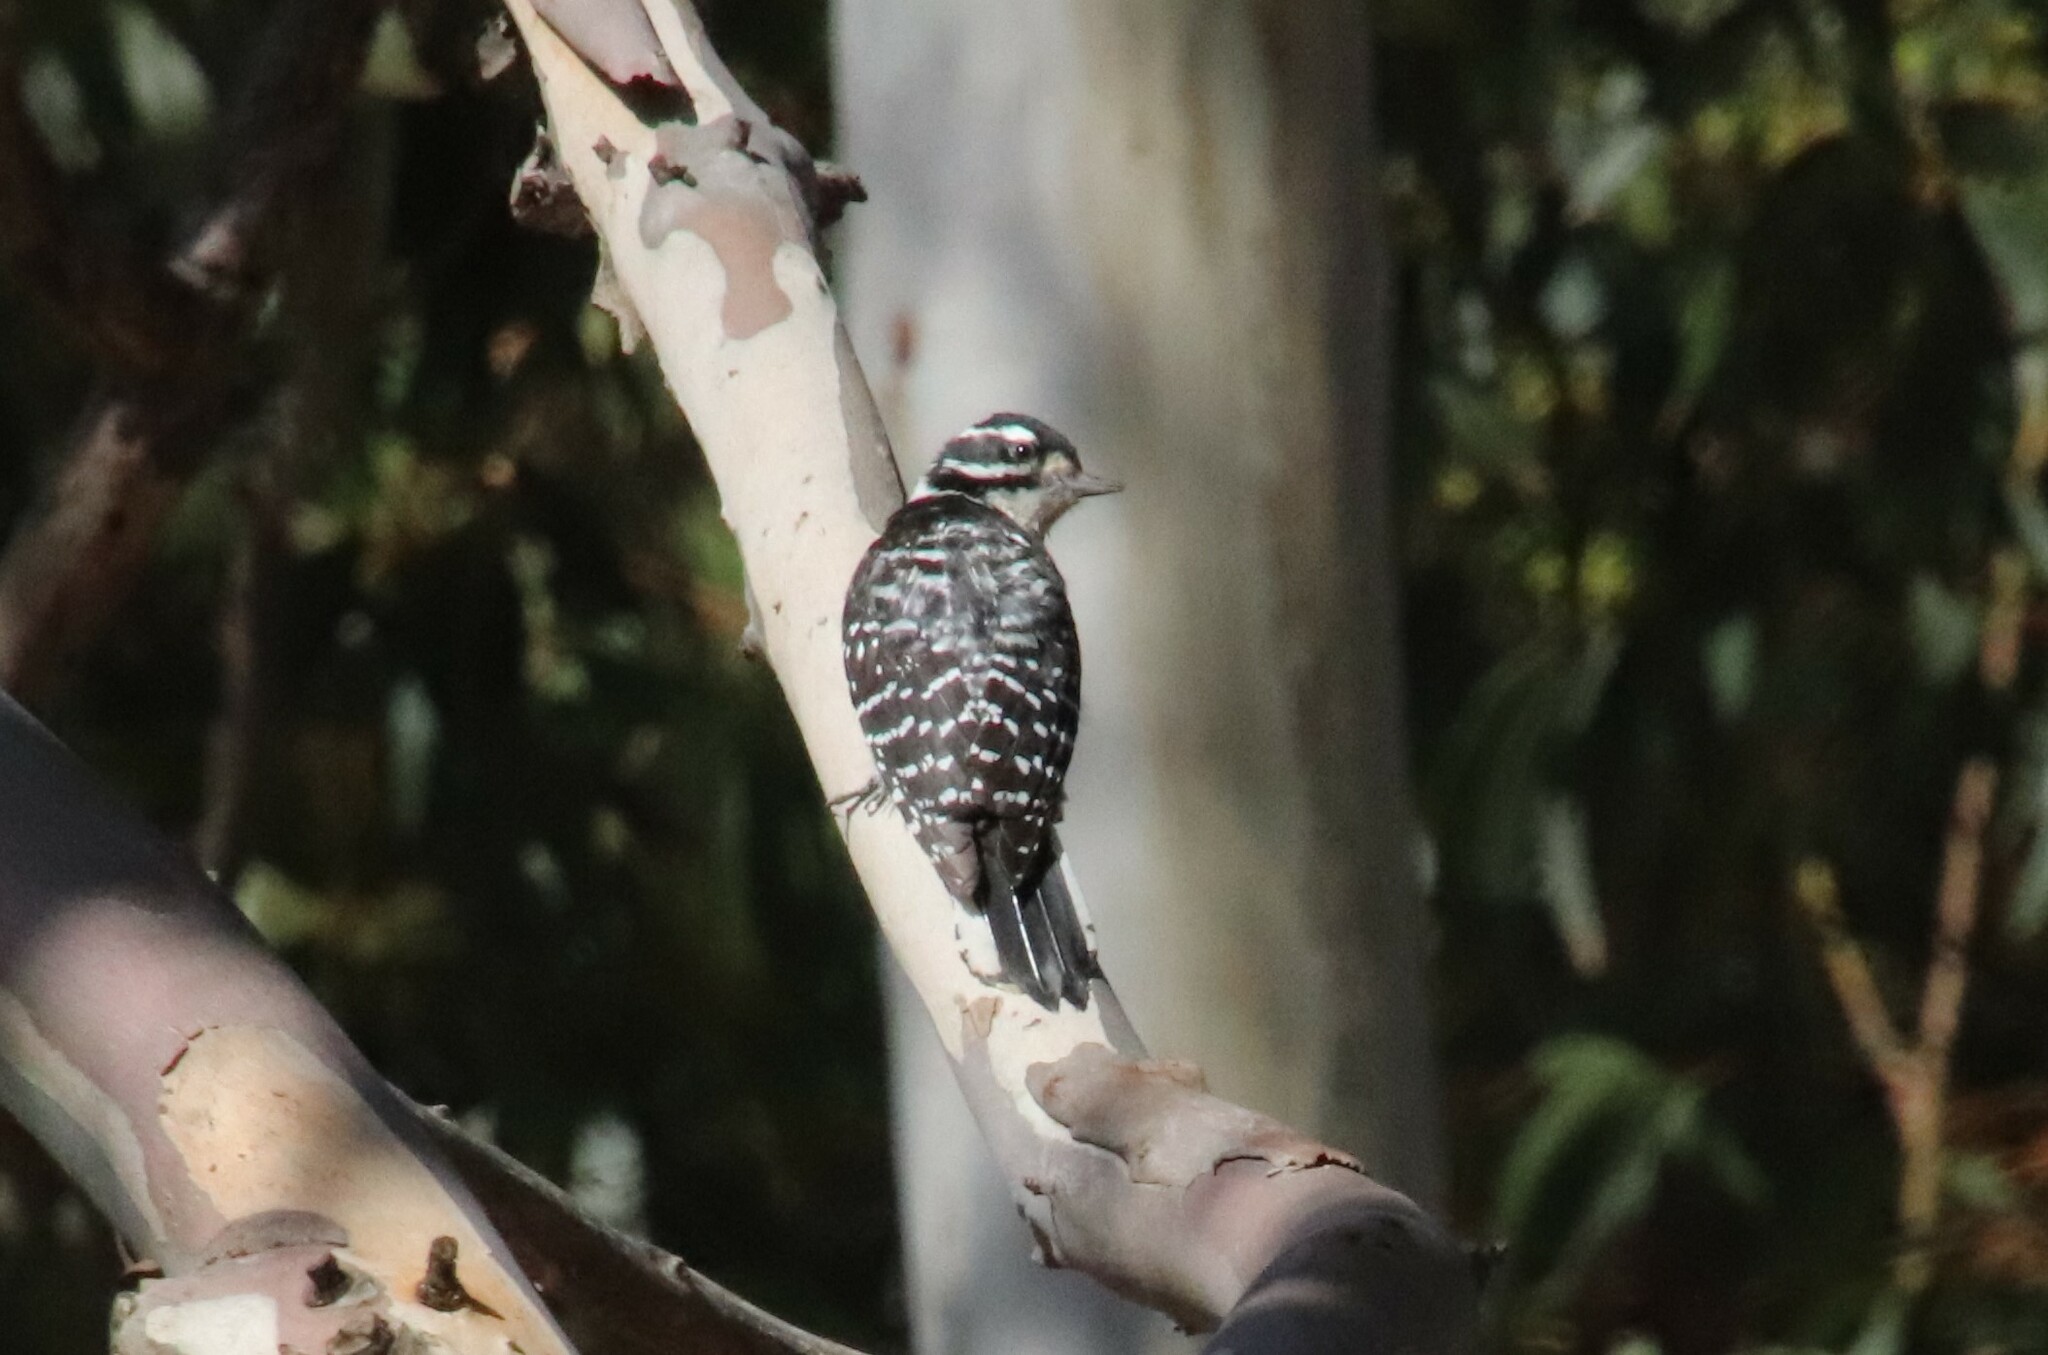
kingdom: Animalia
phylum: Chordata
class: Aves
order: Piciformes
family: Picidae
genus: Dryobates
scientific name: Dryobates nuttallii
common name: Nuttall's woodpecker
